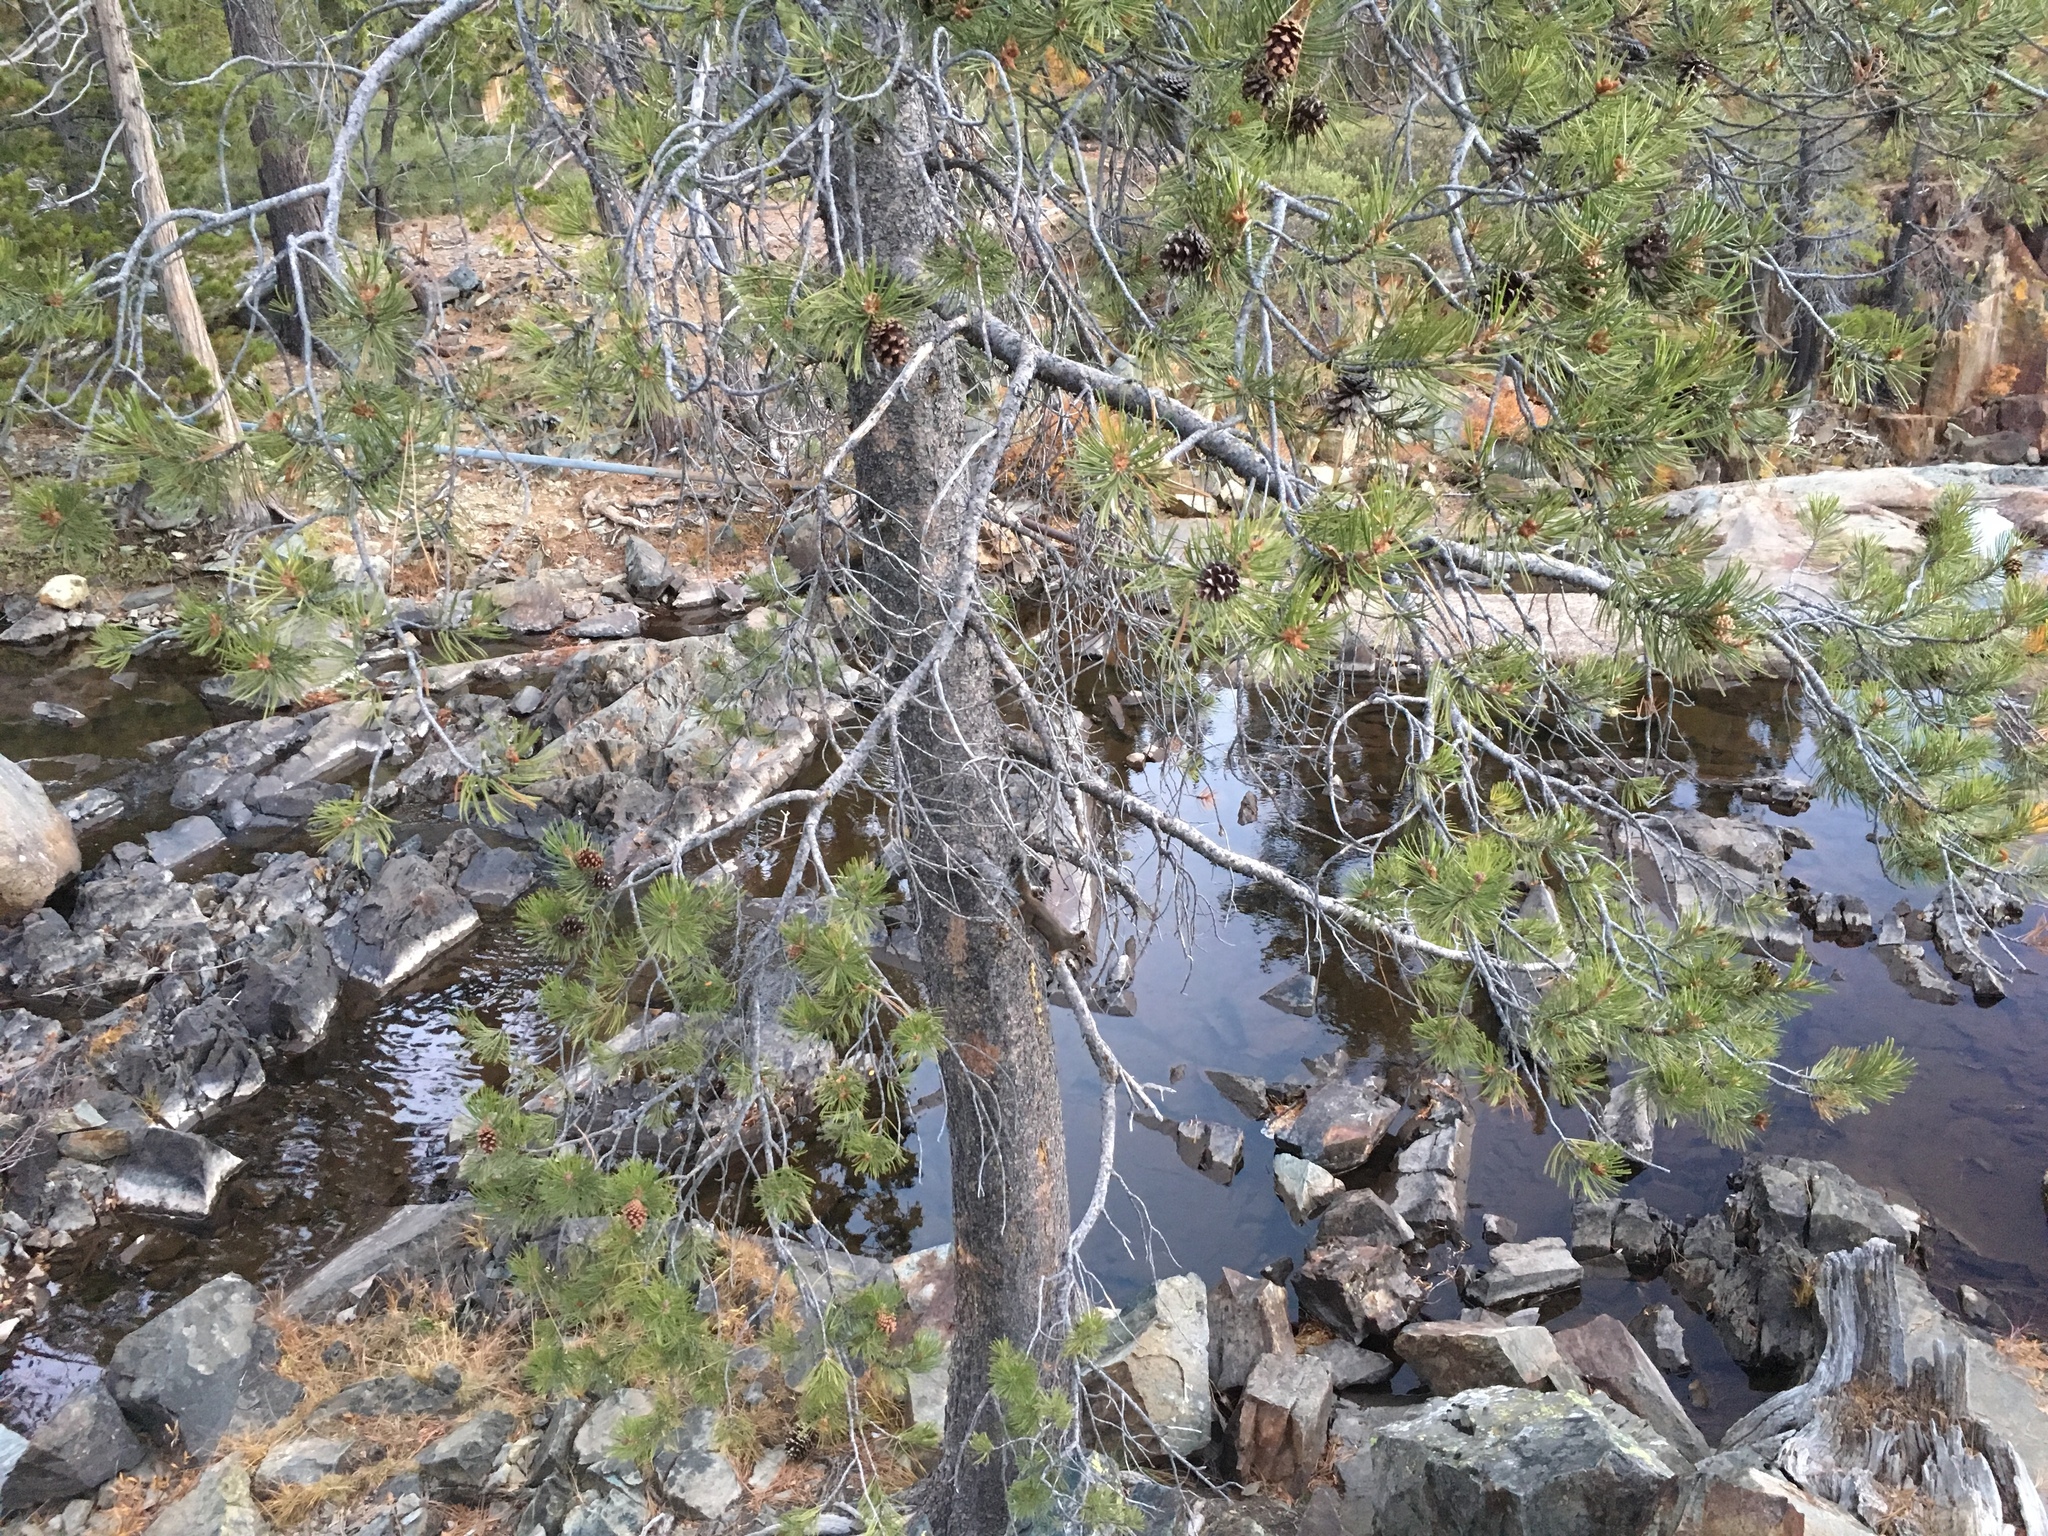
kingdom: Plantae
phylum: Tracheophyta
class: Pinopsida
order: Pinales
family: Pinaceae
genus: Pinus
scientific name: Pinus contorta
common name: Lodgepole pine
